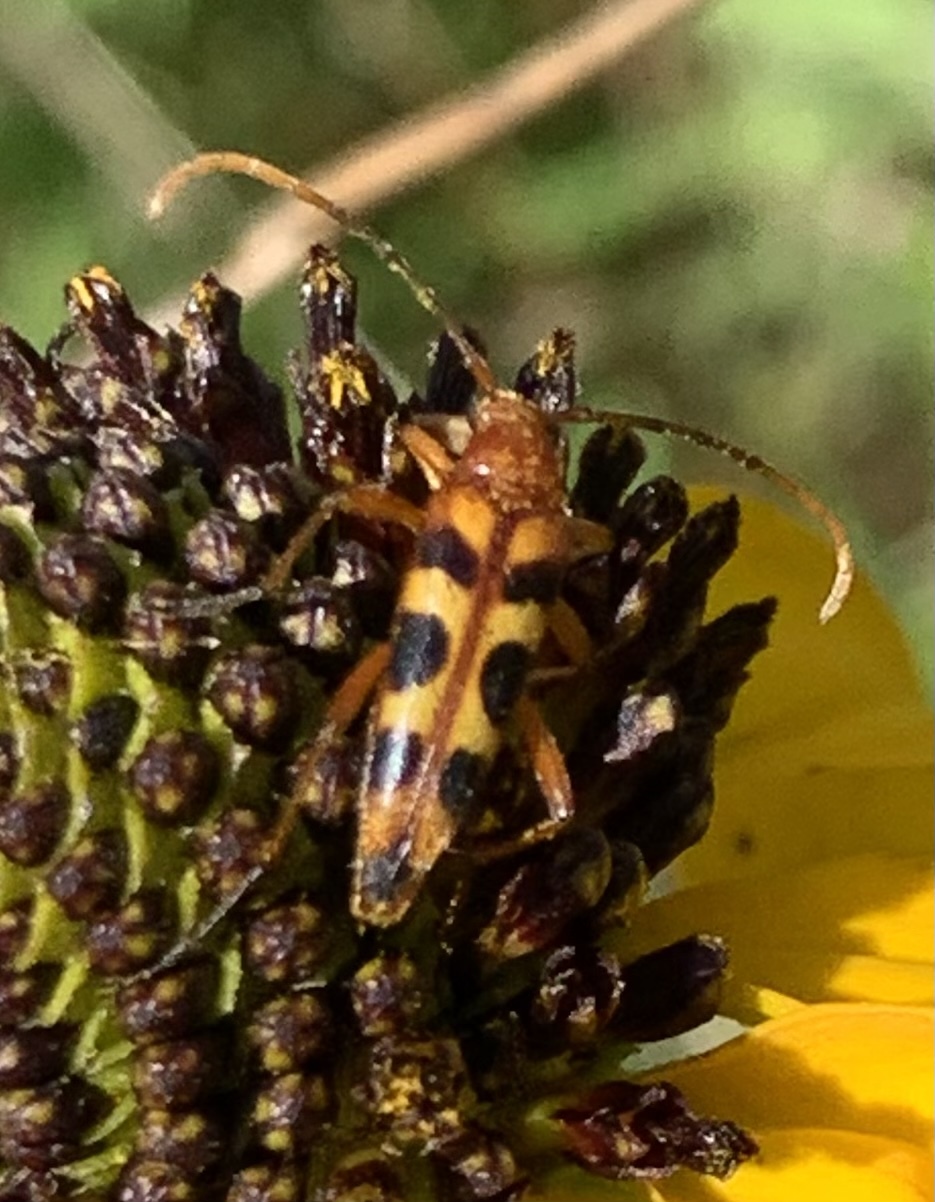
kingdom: Animalia
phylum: Arthropoda
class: Insecta
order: Coleoptera
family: Cerambycidae
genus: Strangalia
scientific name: Strangalia sexnotata
